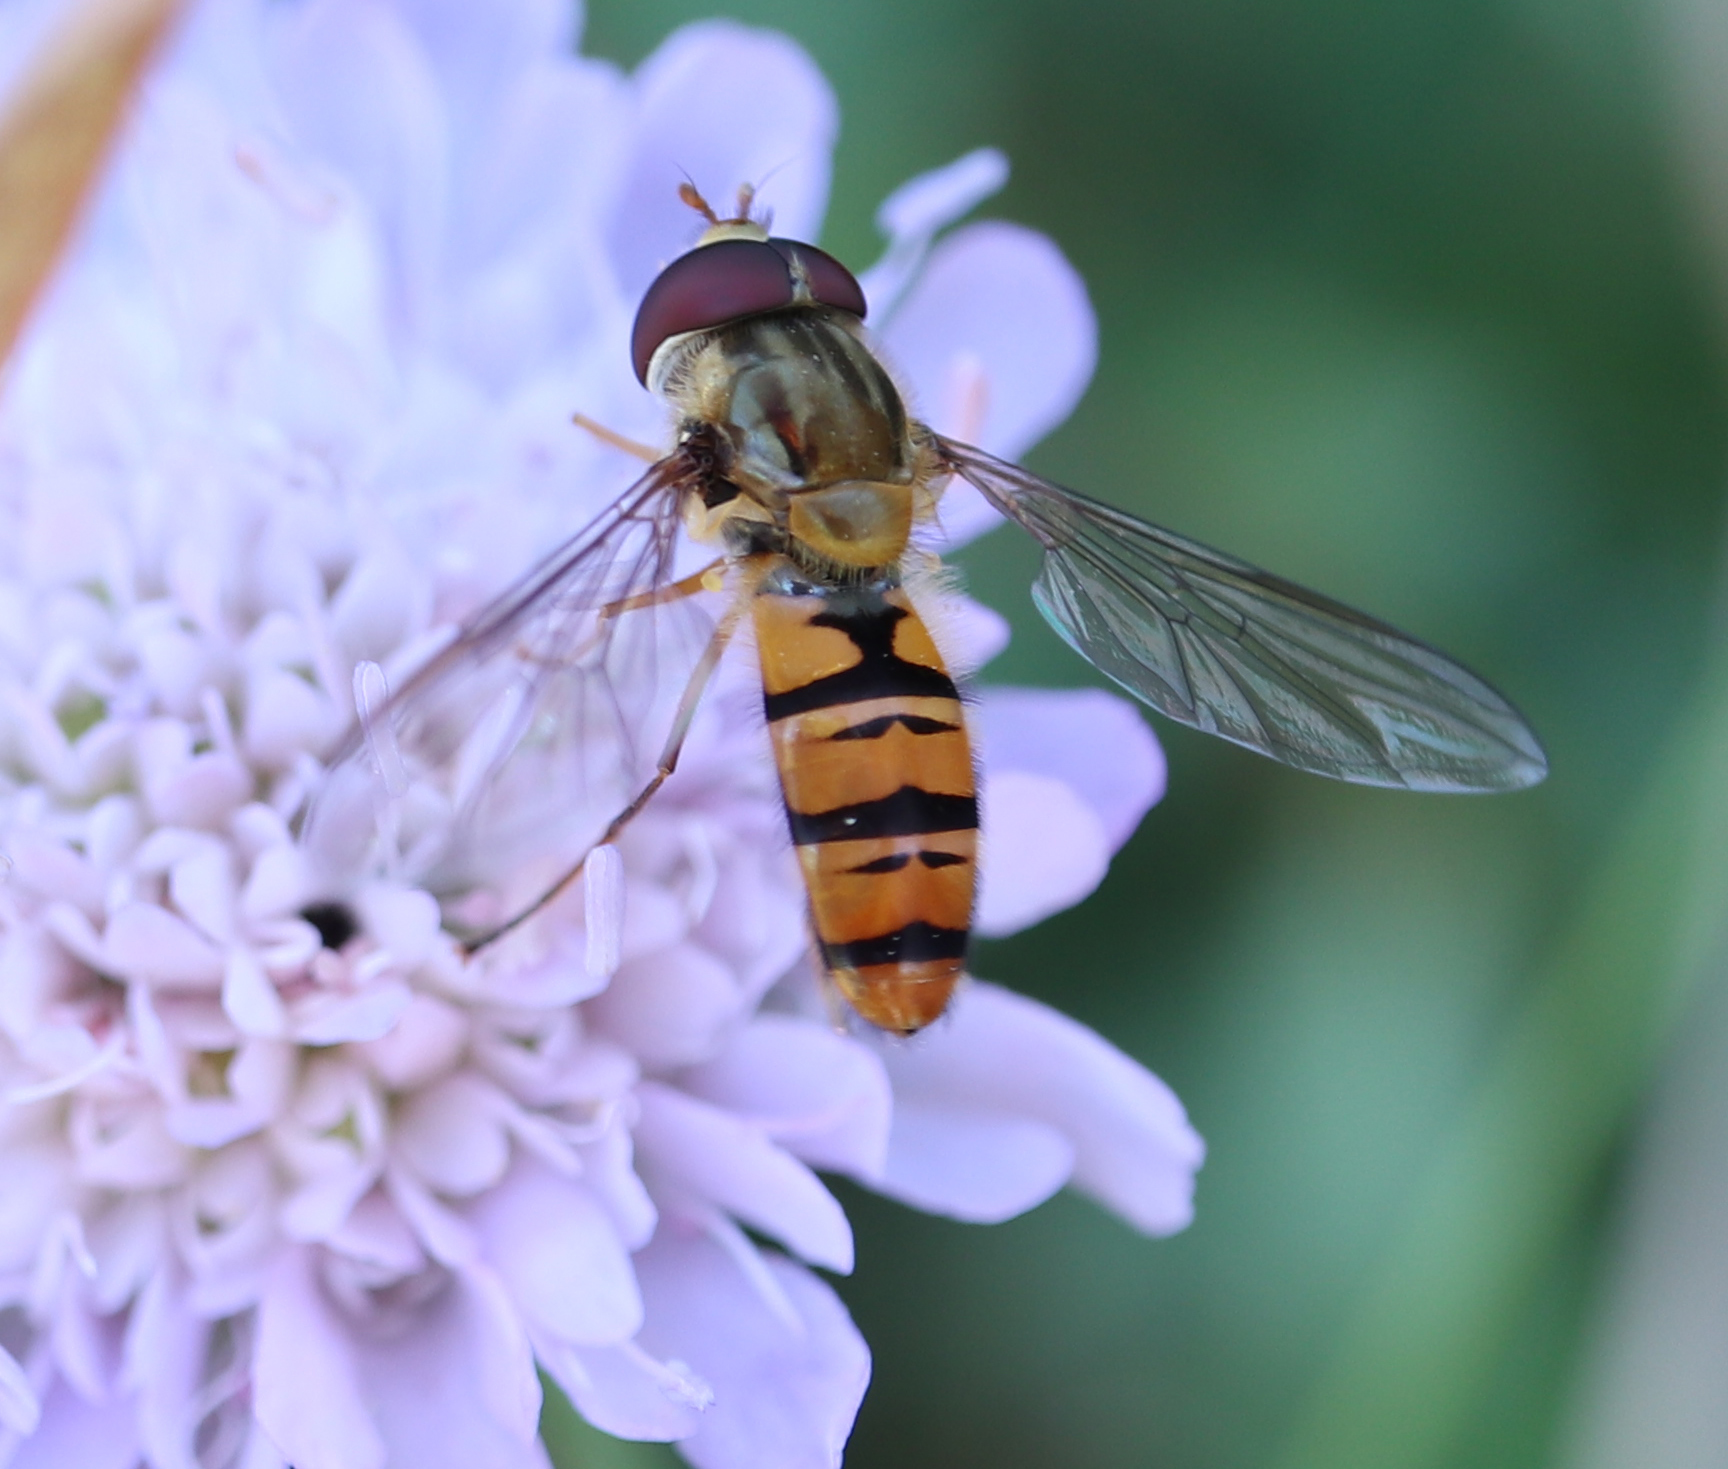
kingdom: Animalia
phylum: Arthropoda
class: Insecta
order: Diptera
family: Syrphidae
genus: Episyrphus
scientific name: Episyrphus balteatus
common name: Marmalade hoverfly
